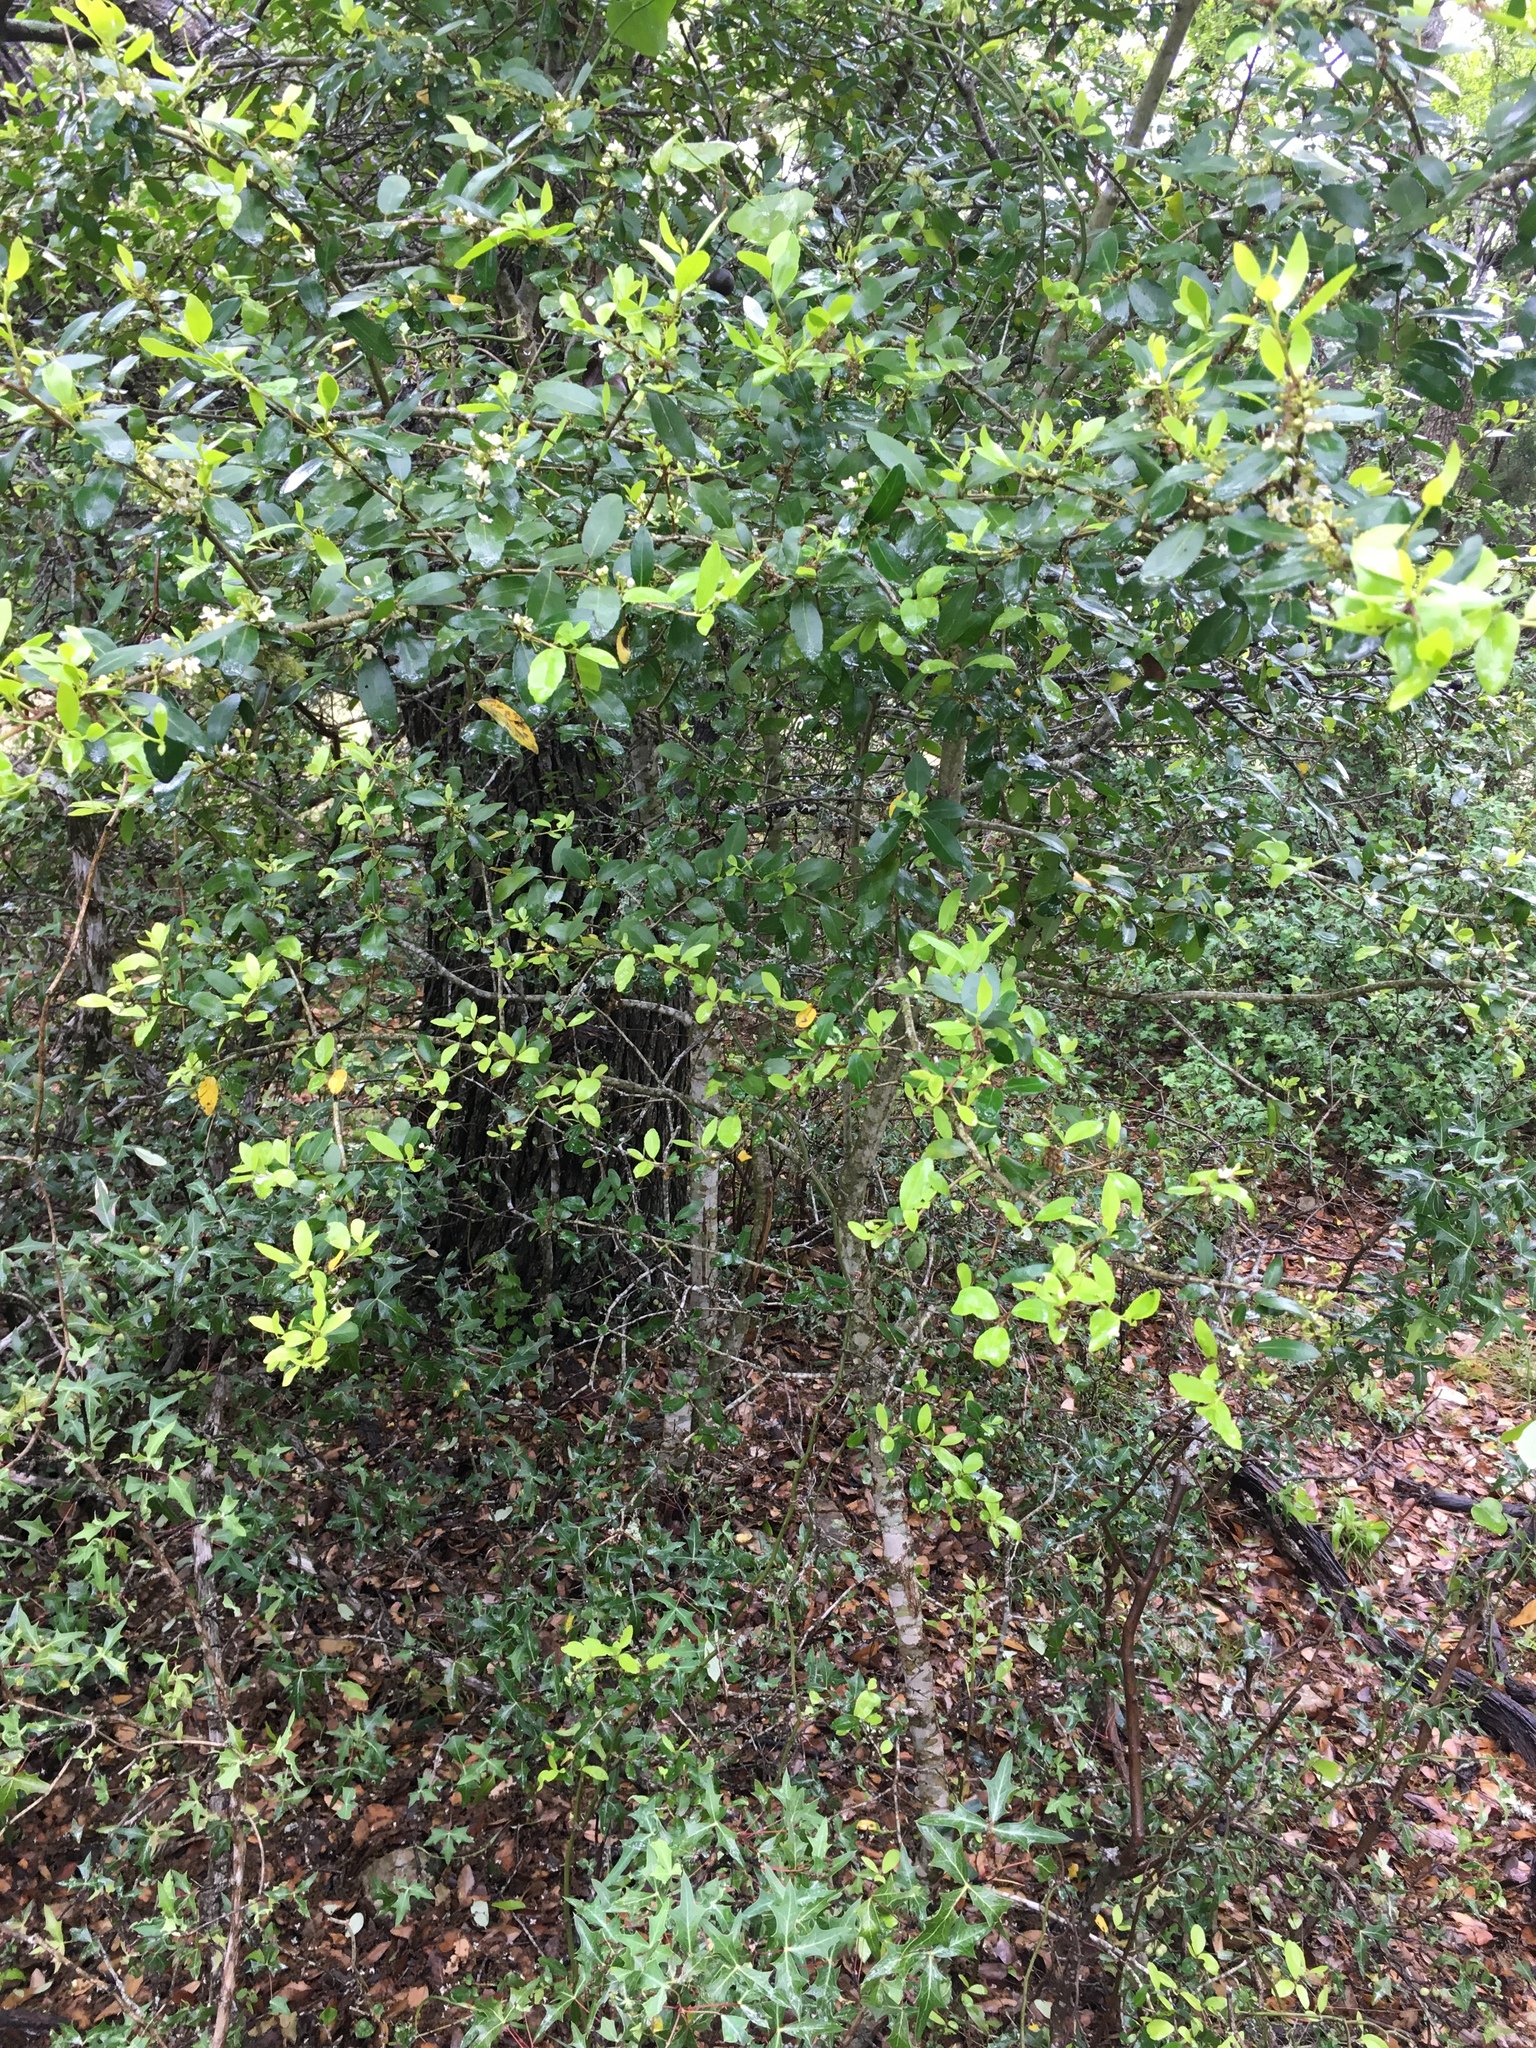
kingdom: Plantae
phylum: Tracheophyta
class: Magnoliopsida
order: Aquifoliales
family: Aquifoliaceae
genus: Ilex
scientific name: Ilex vomitoria
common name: Yaupon holly
